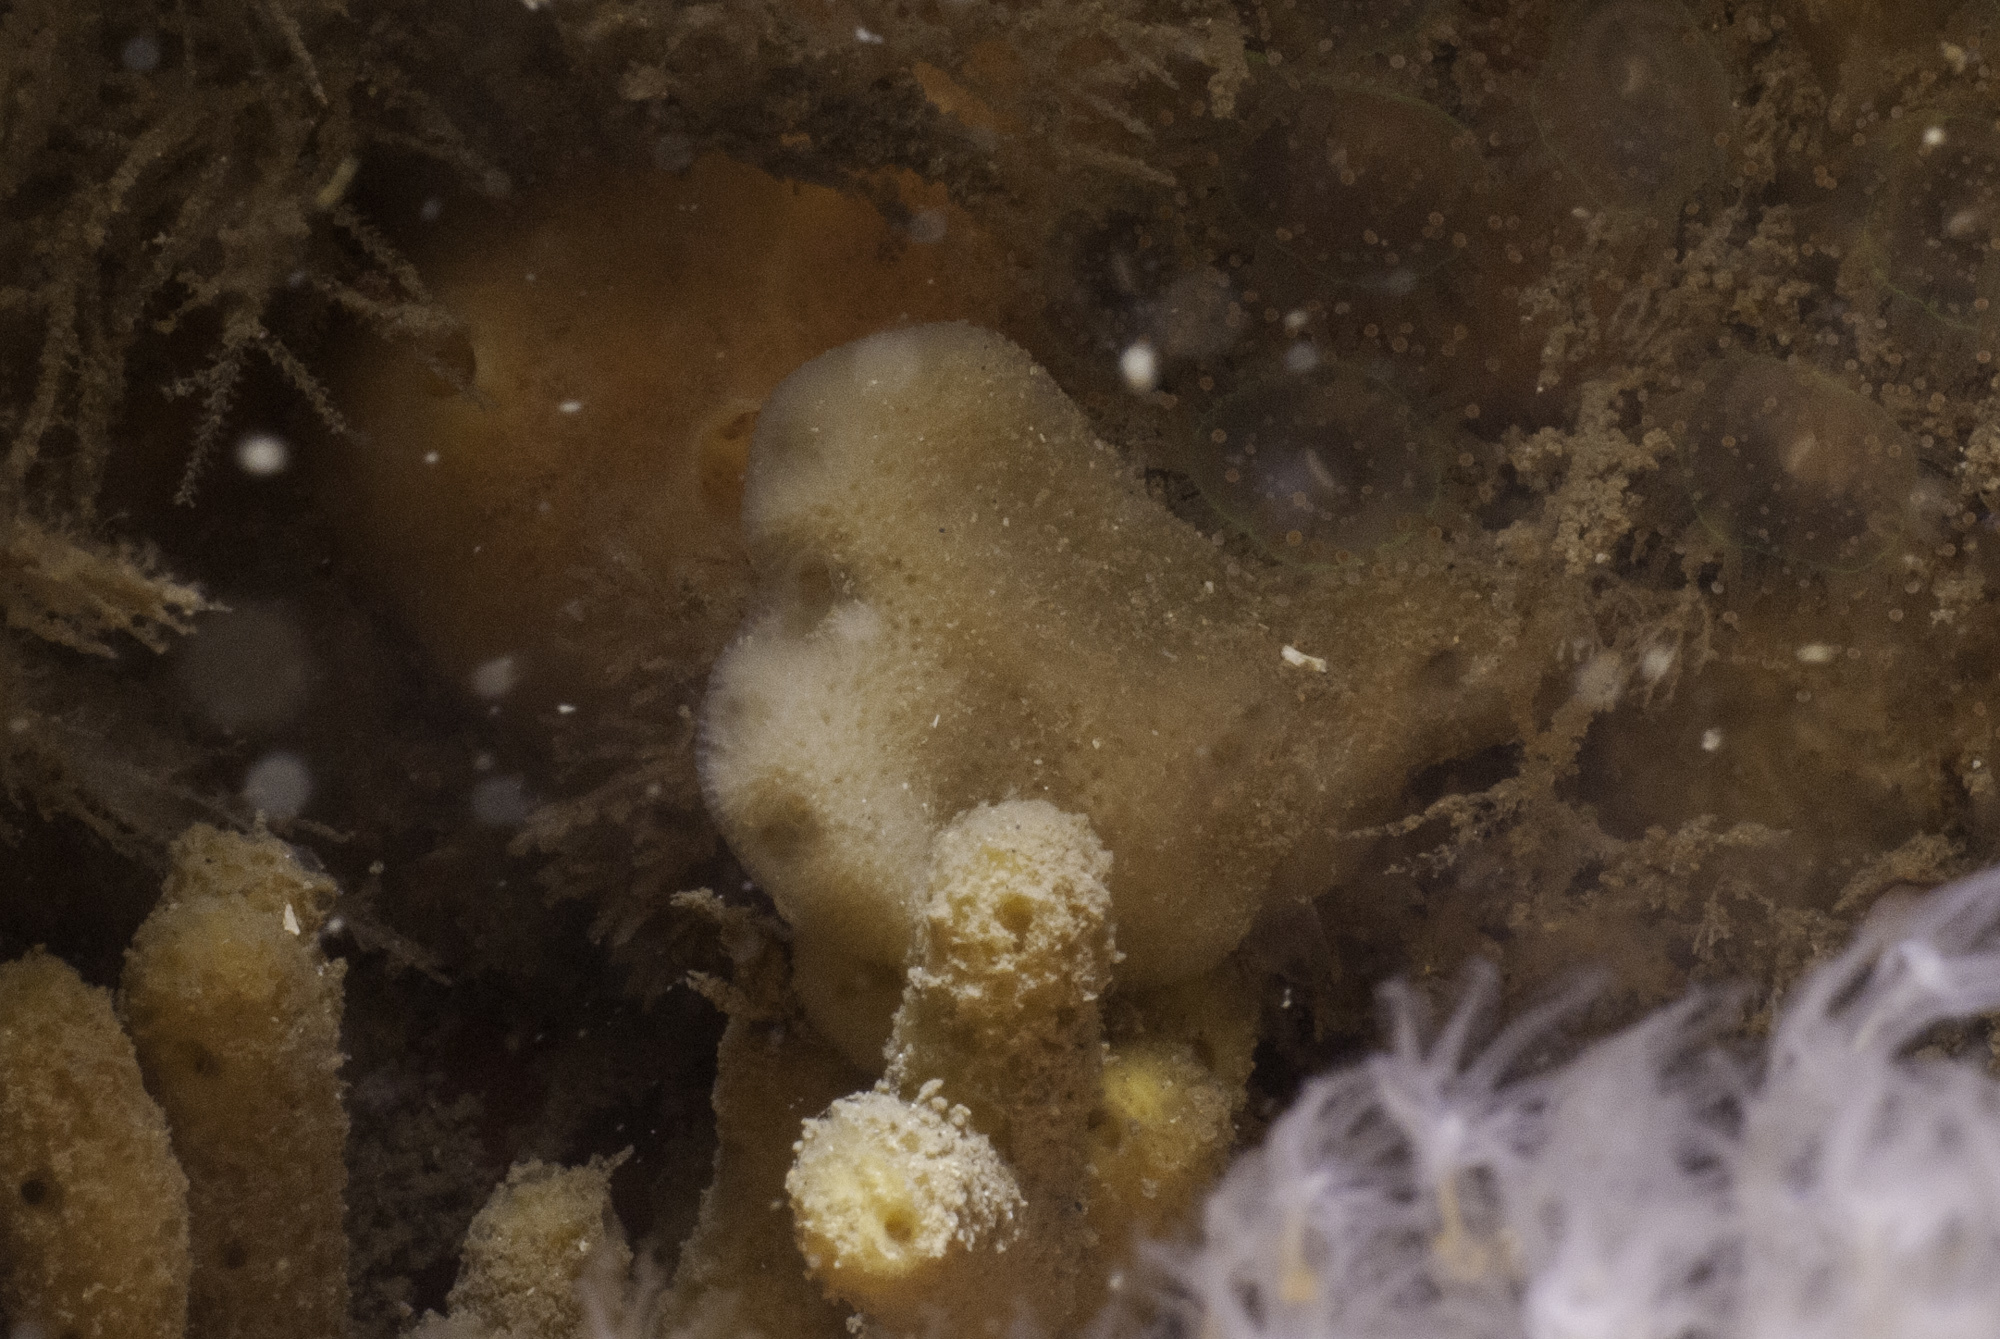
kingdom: Animalia
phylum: Porifera
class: Demospongiae
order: Dendroceratida
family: Dictyodendrillidae
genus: Spongionella
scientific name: Spongionella pulchella
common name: Gorgeous horny sponge
